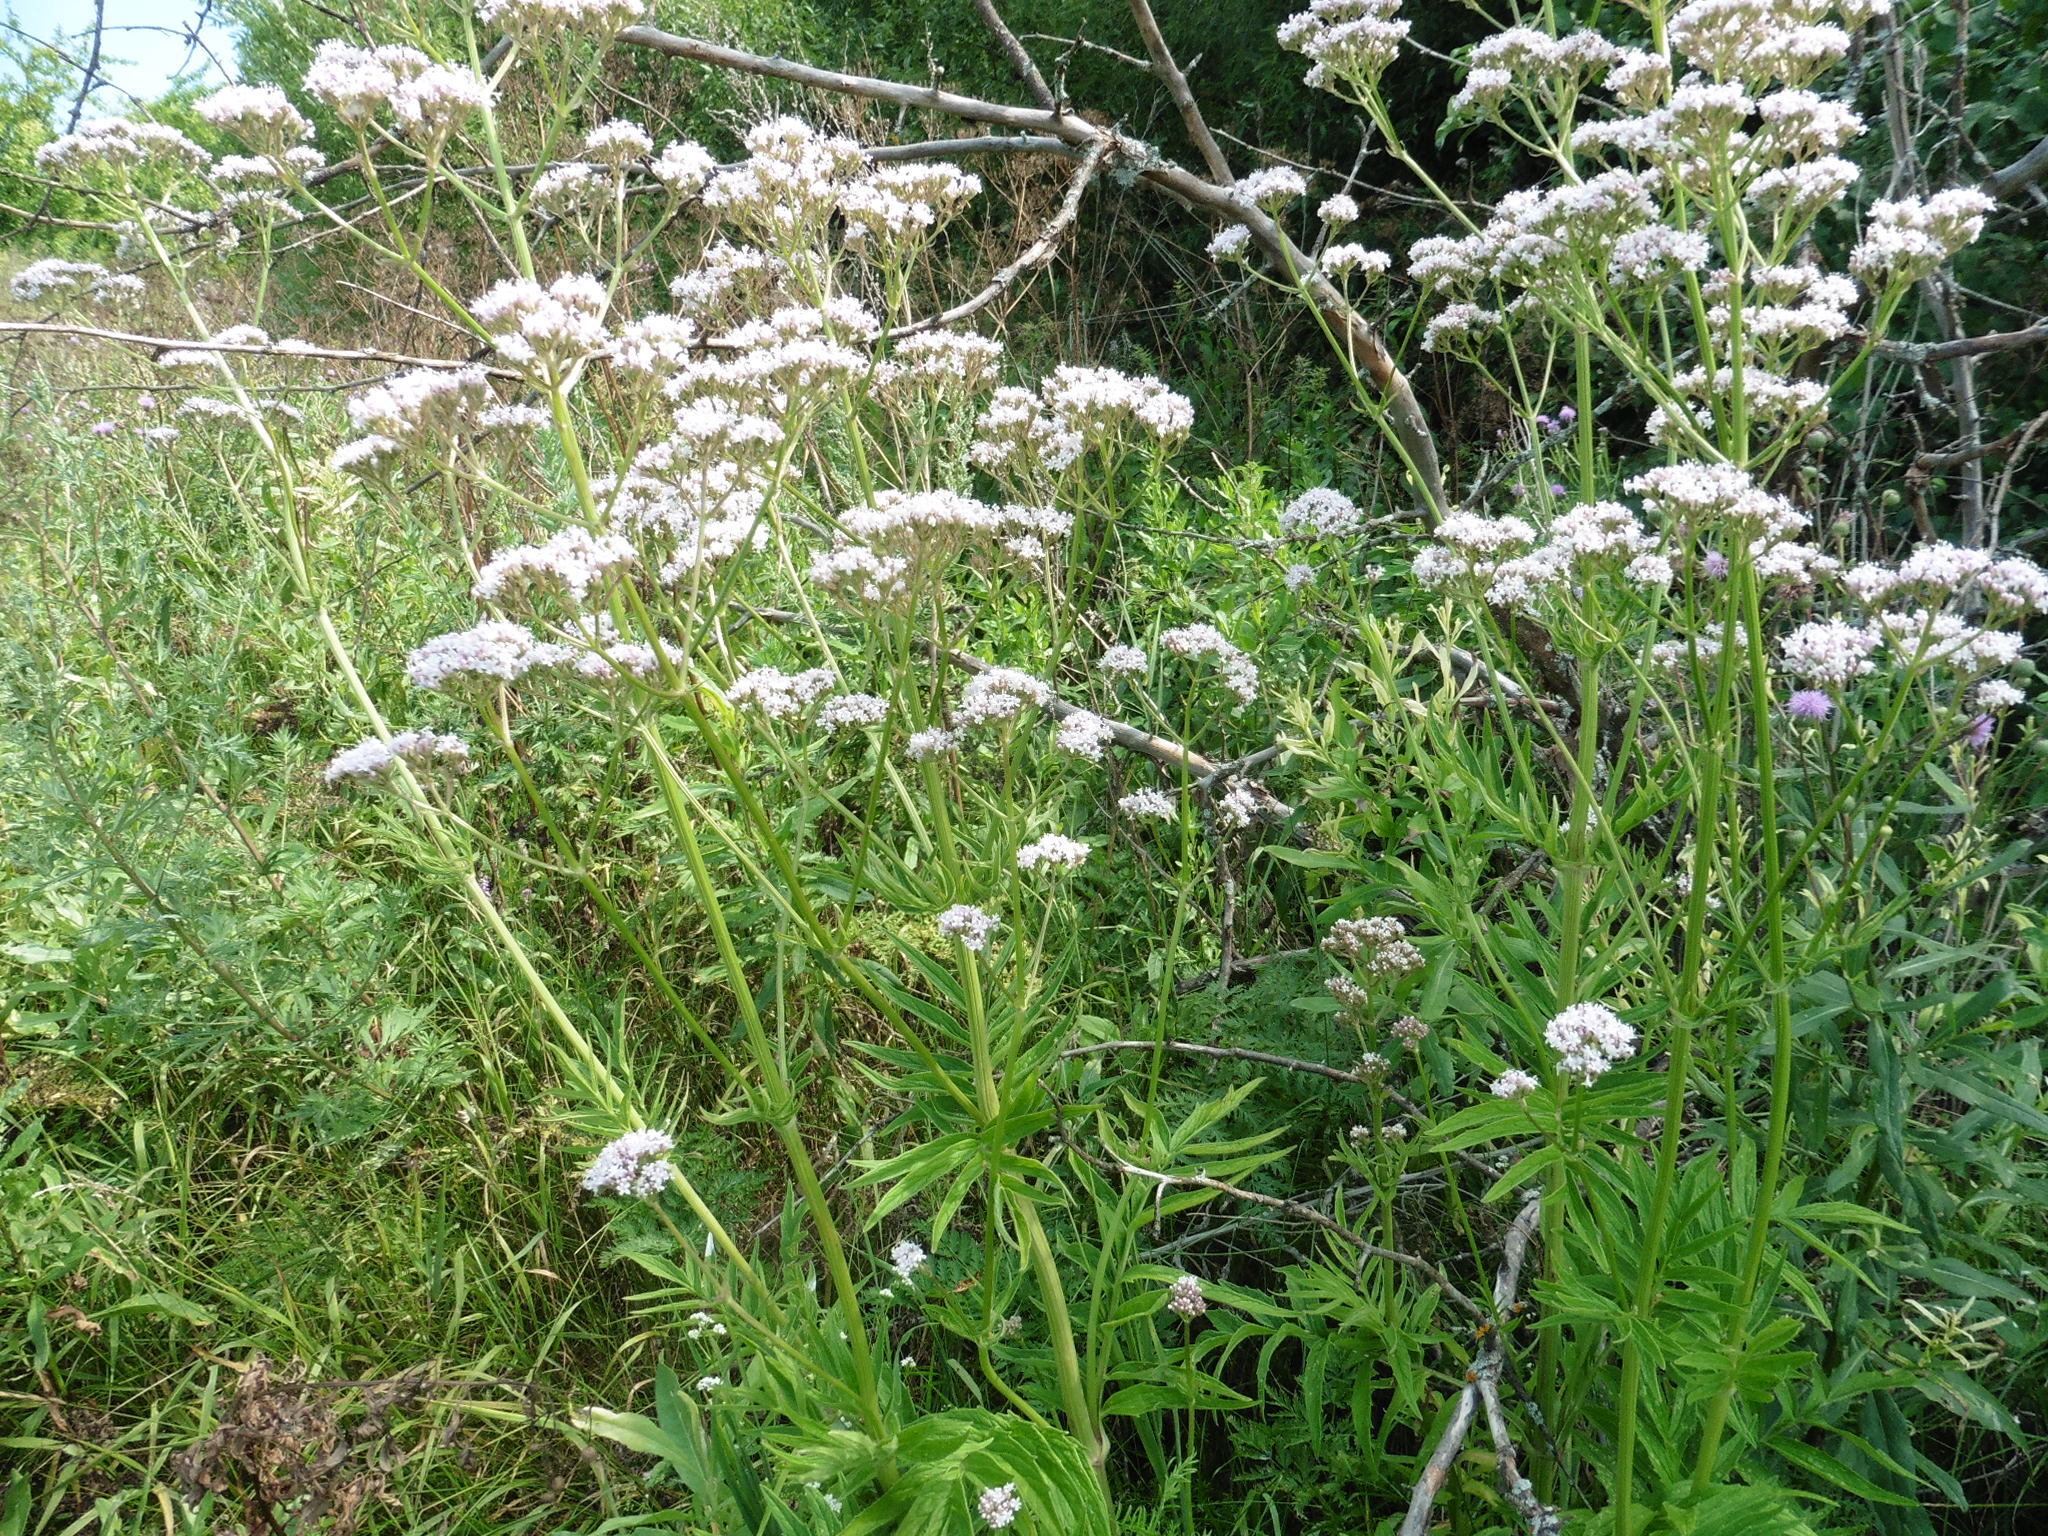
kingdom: Plantae
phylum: Tracheophyta
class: Magnoliopsida
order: Dipsacales
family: Caprifoliaceae
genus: Valeriana
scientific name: Valeriana officinalis
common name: Common valerian
